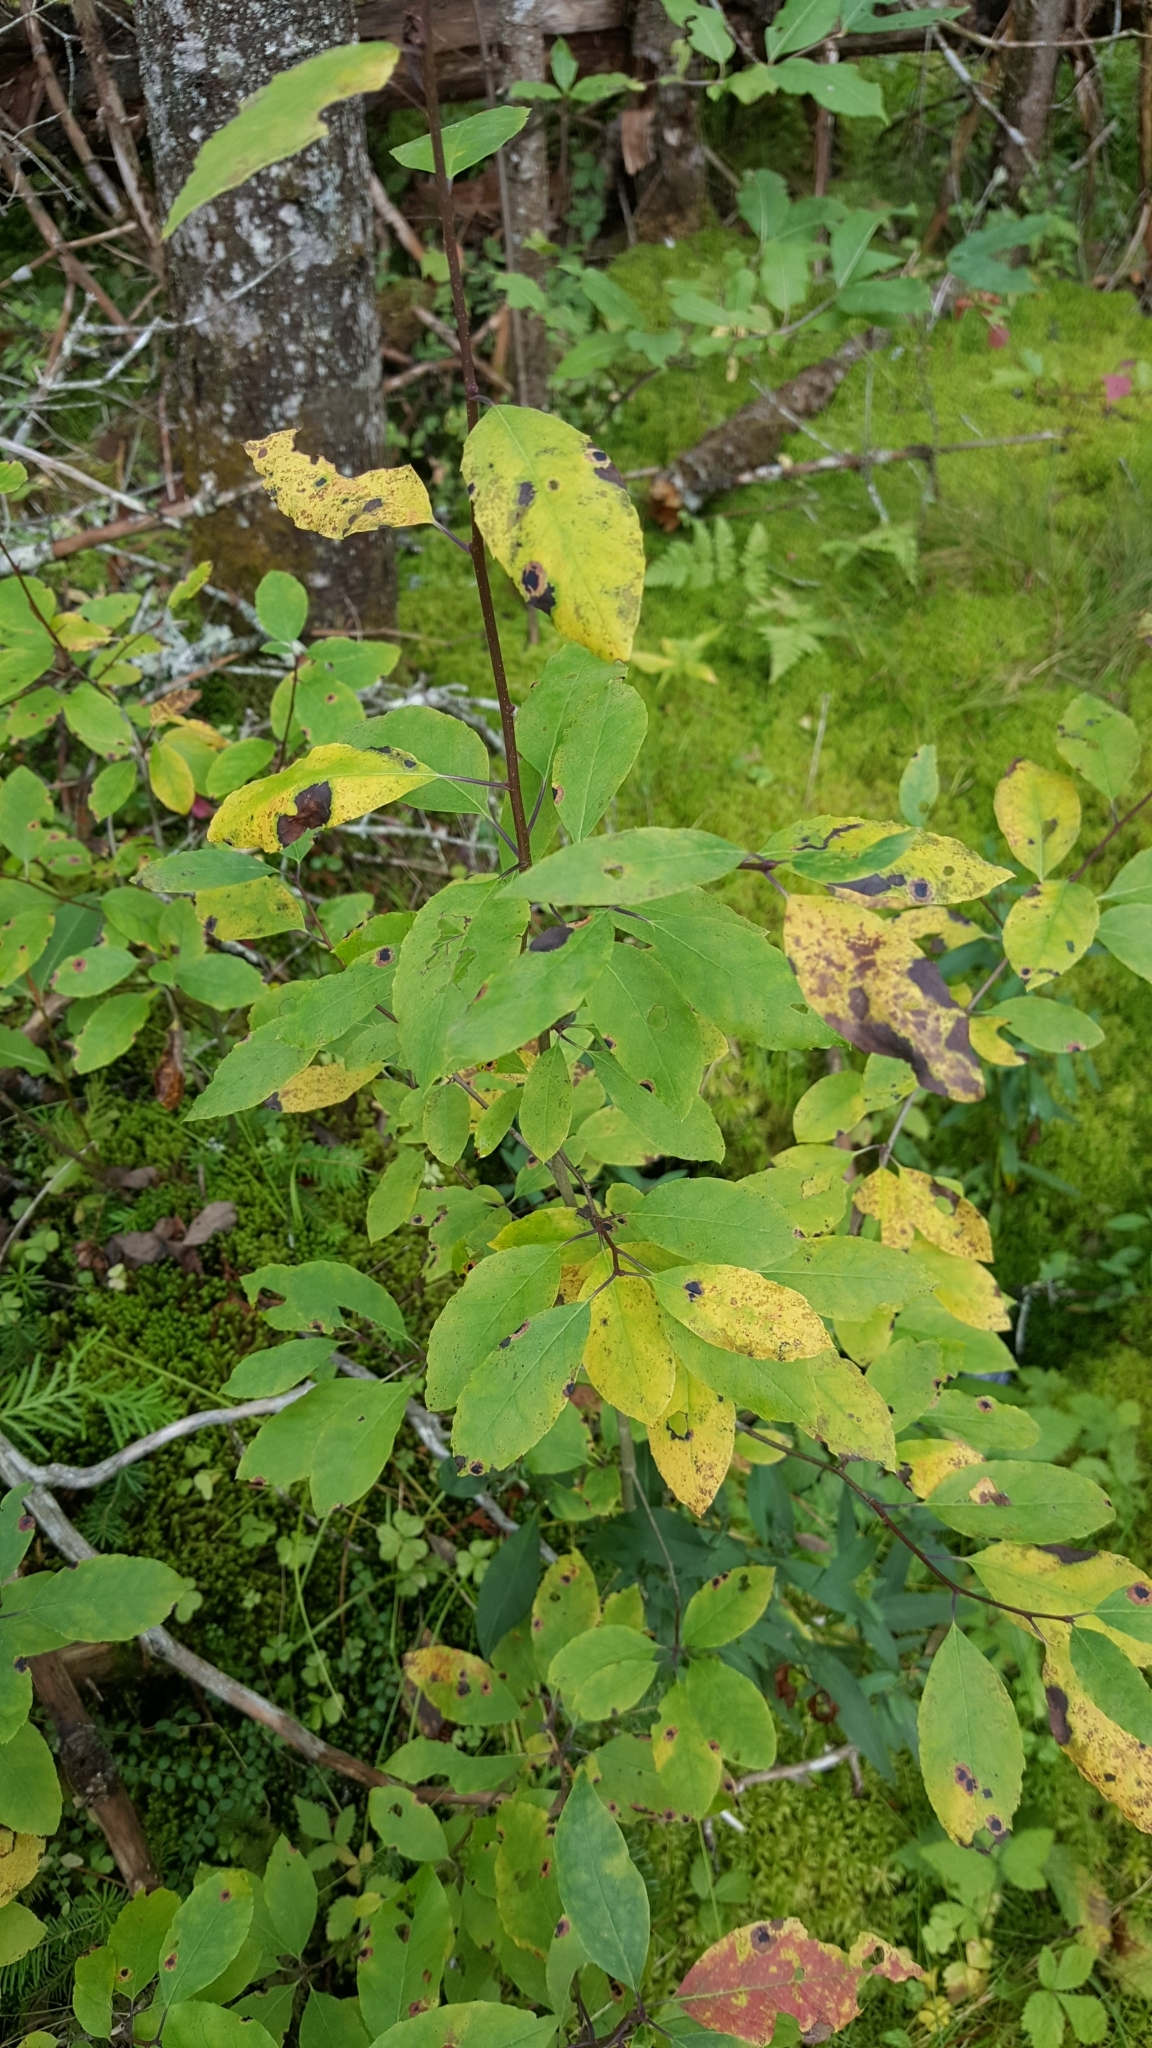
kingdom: Plantae
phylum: Tracheophyta
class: Magnoliopsida
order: Aquifoliales
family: Aquifoliaceae
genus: Ilex
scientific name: Ilex mucronata
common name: Catberry
